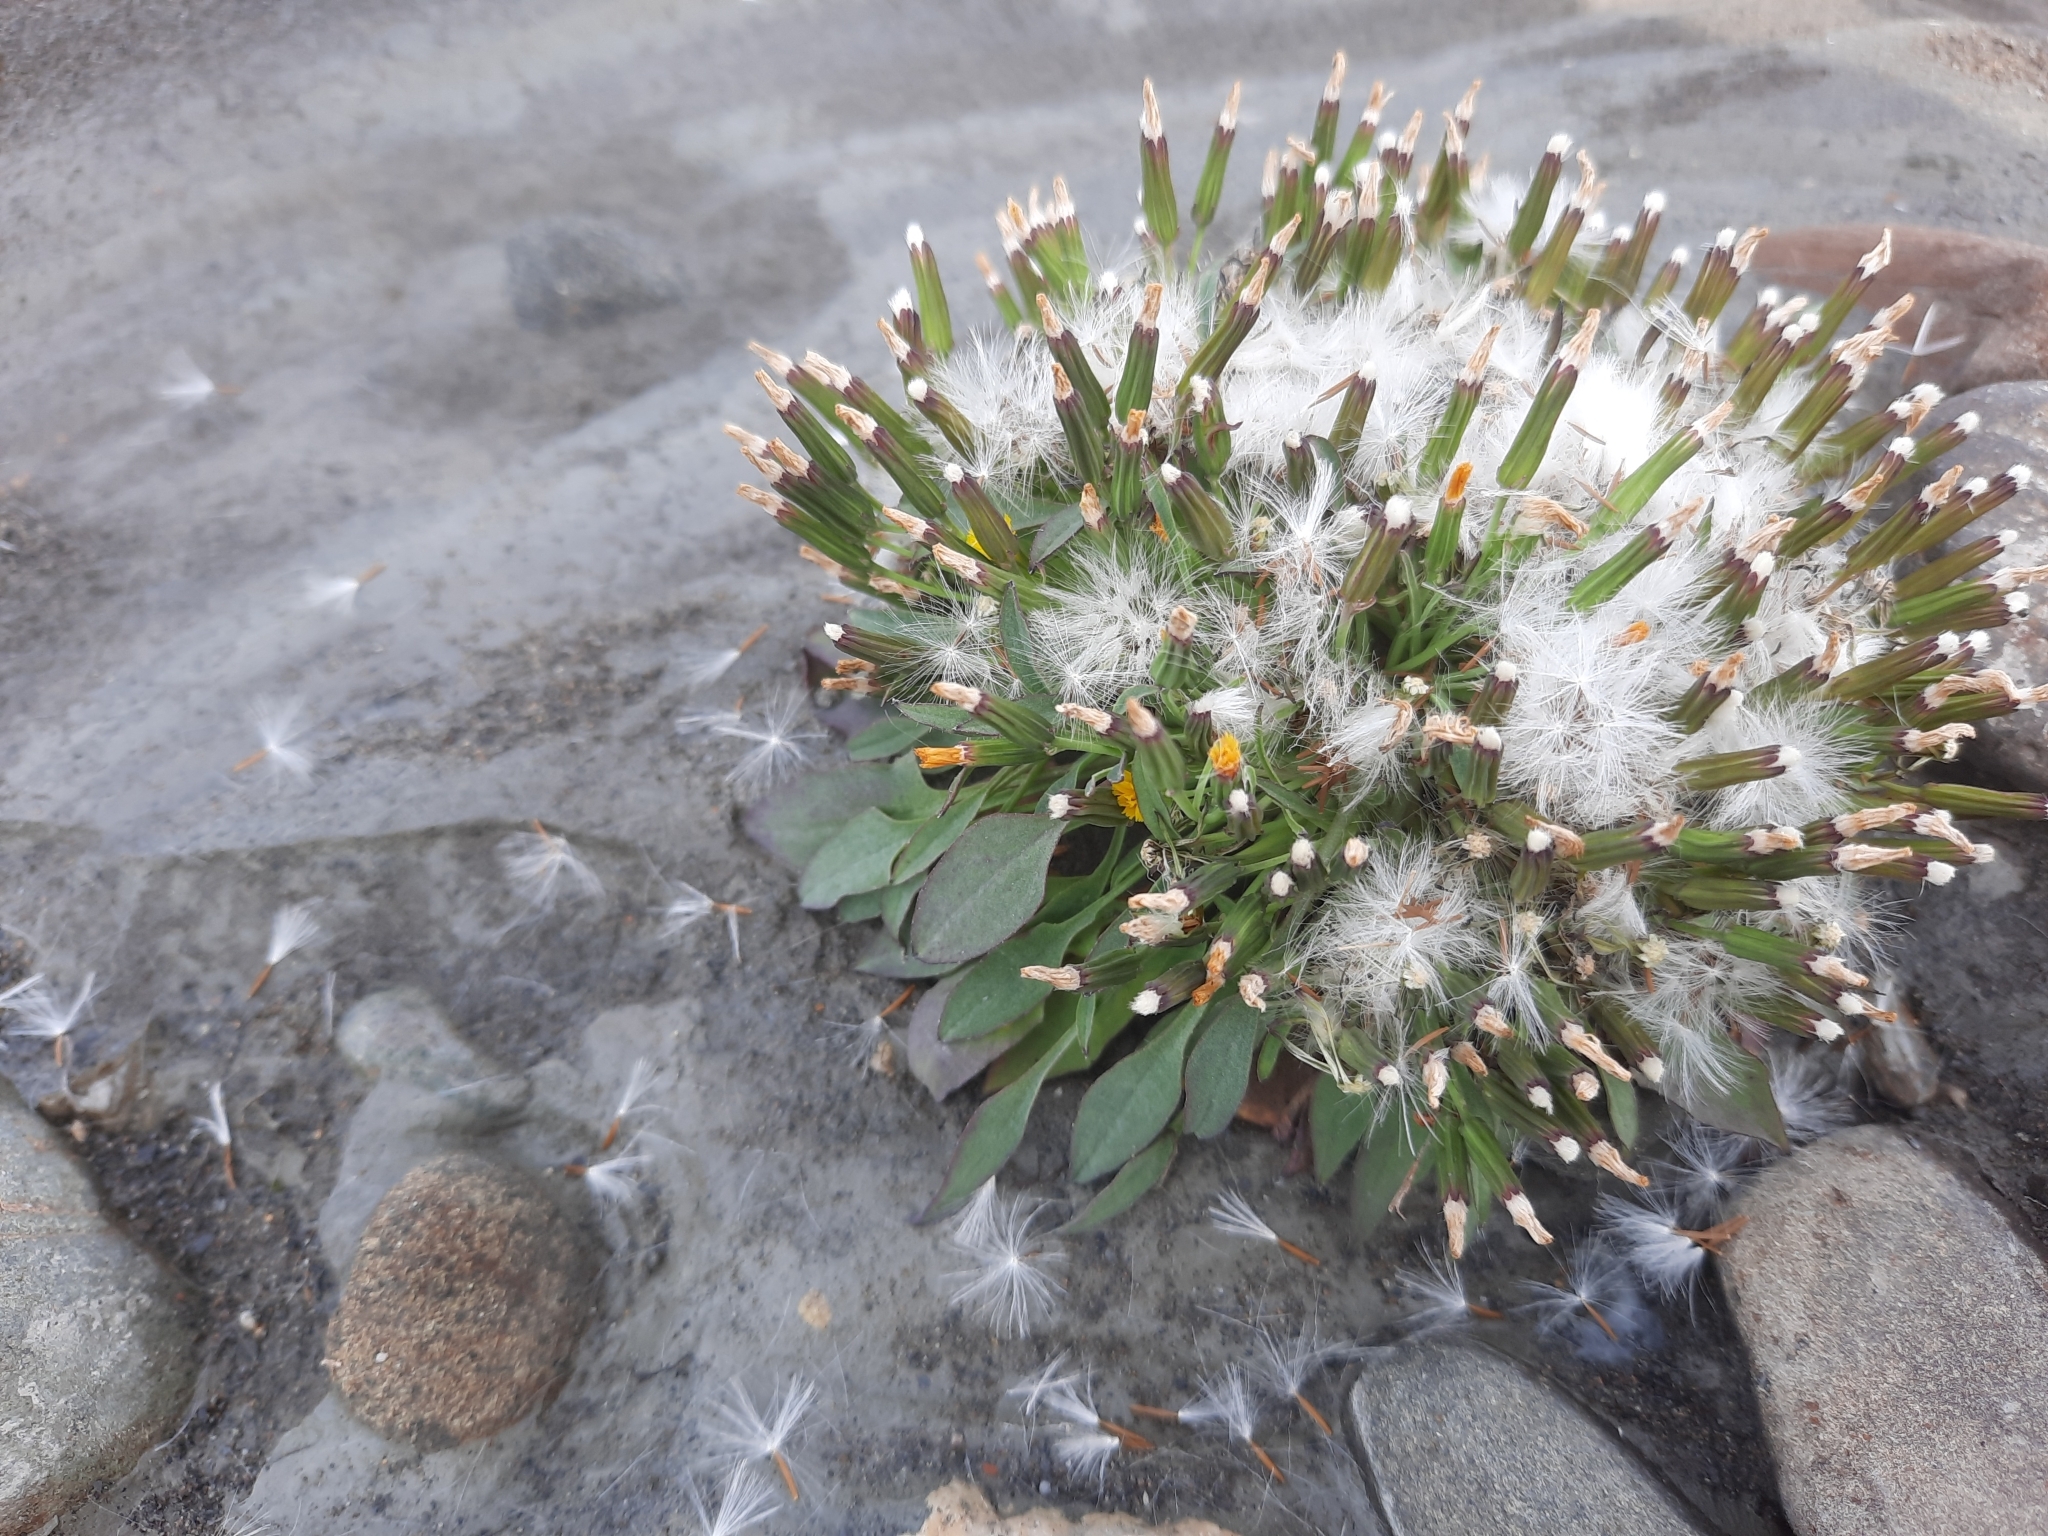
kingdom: Plantae
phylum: Tracheophyta
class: Magnoliopsida
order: Asterales
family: Asteraceae
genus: Askellia
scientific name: Askellia pygmaea
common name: Dwarf alpine hawksbeard
